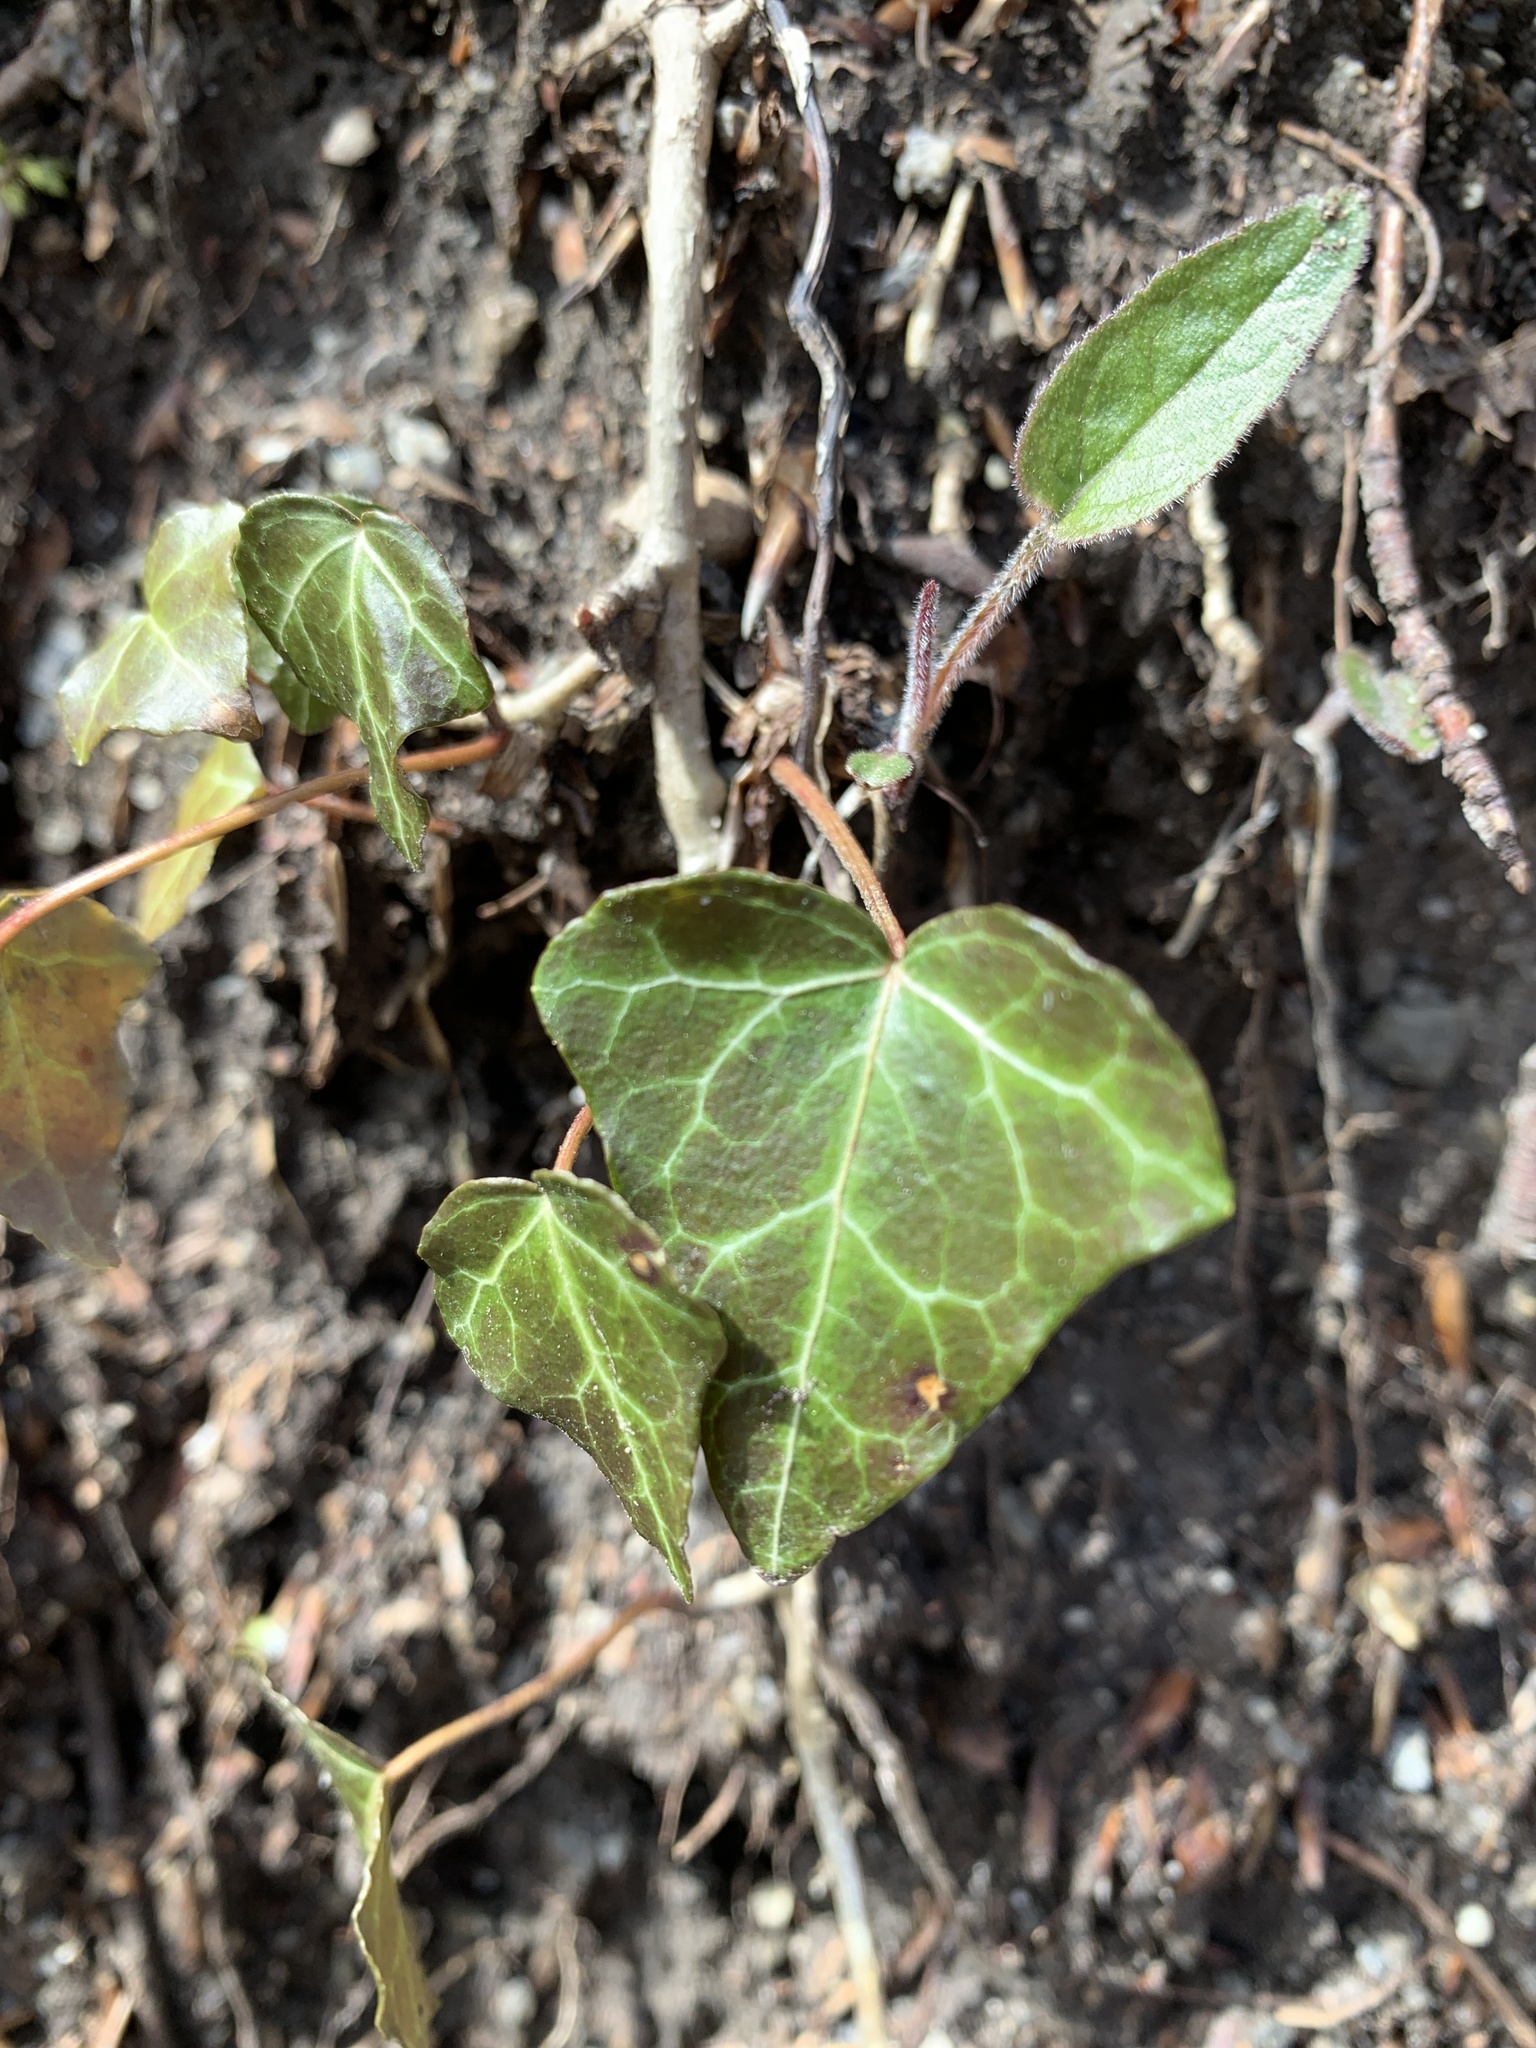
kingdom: Plantae
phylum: Tracheophyta
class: Magnoliopsida
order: Apiales
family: Araliaceae
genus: Hedera
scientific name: Hedera helix
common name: Ivy
